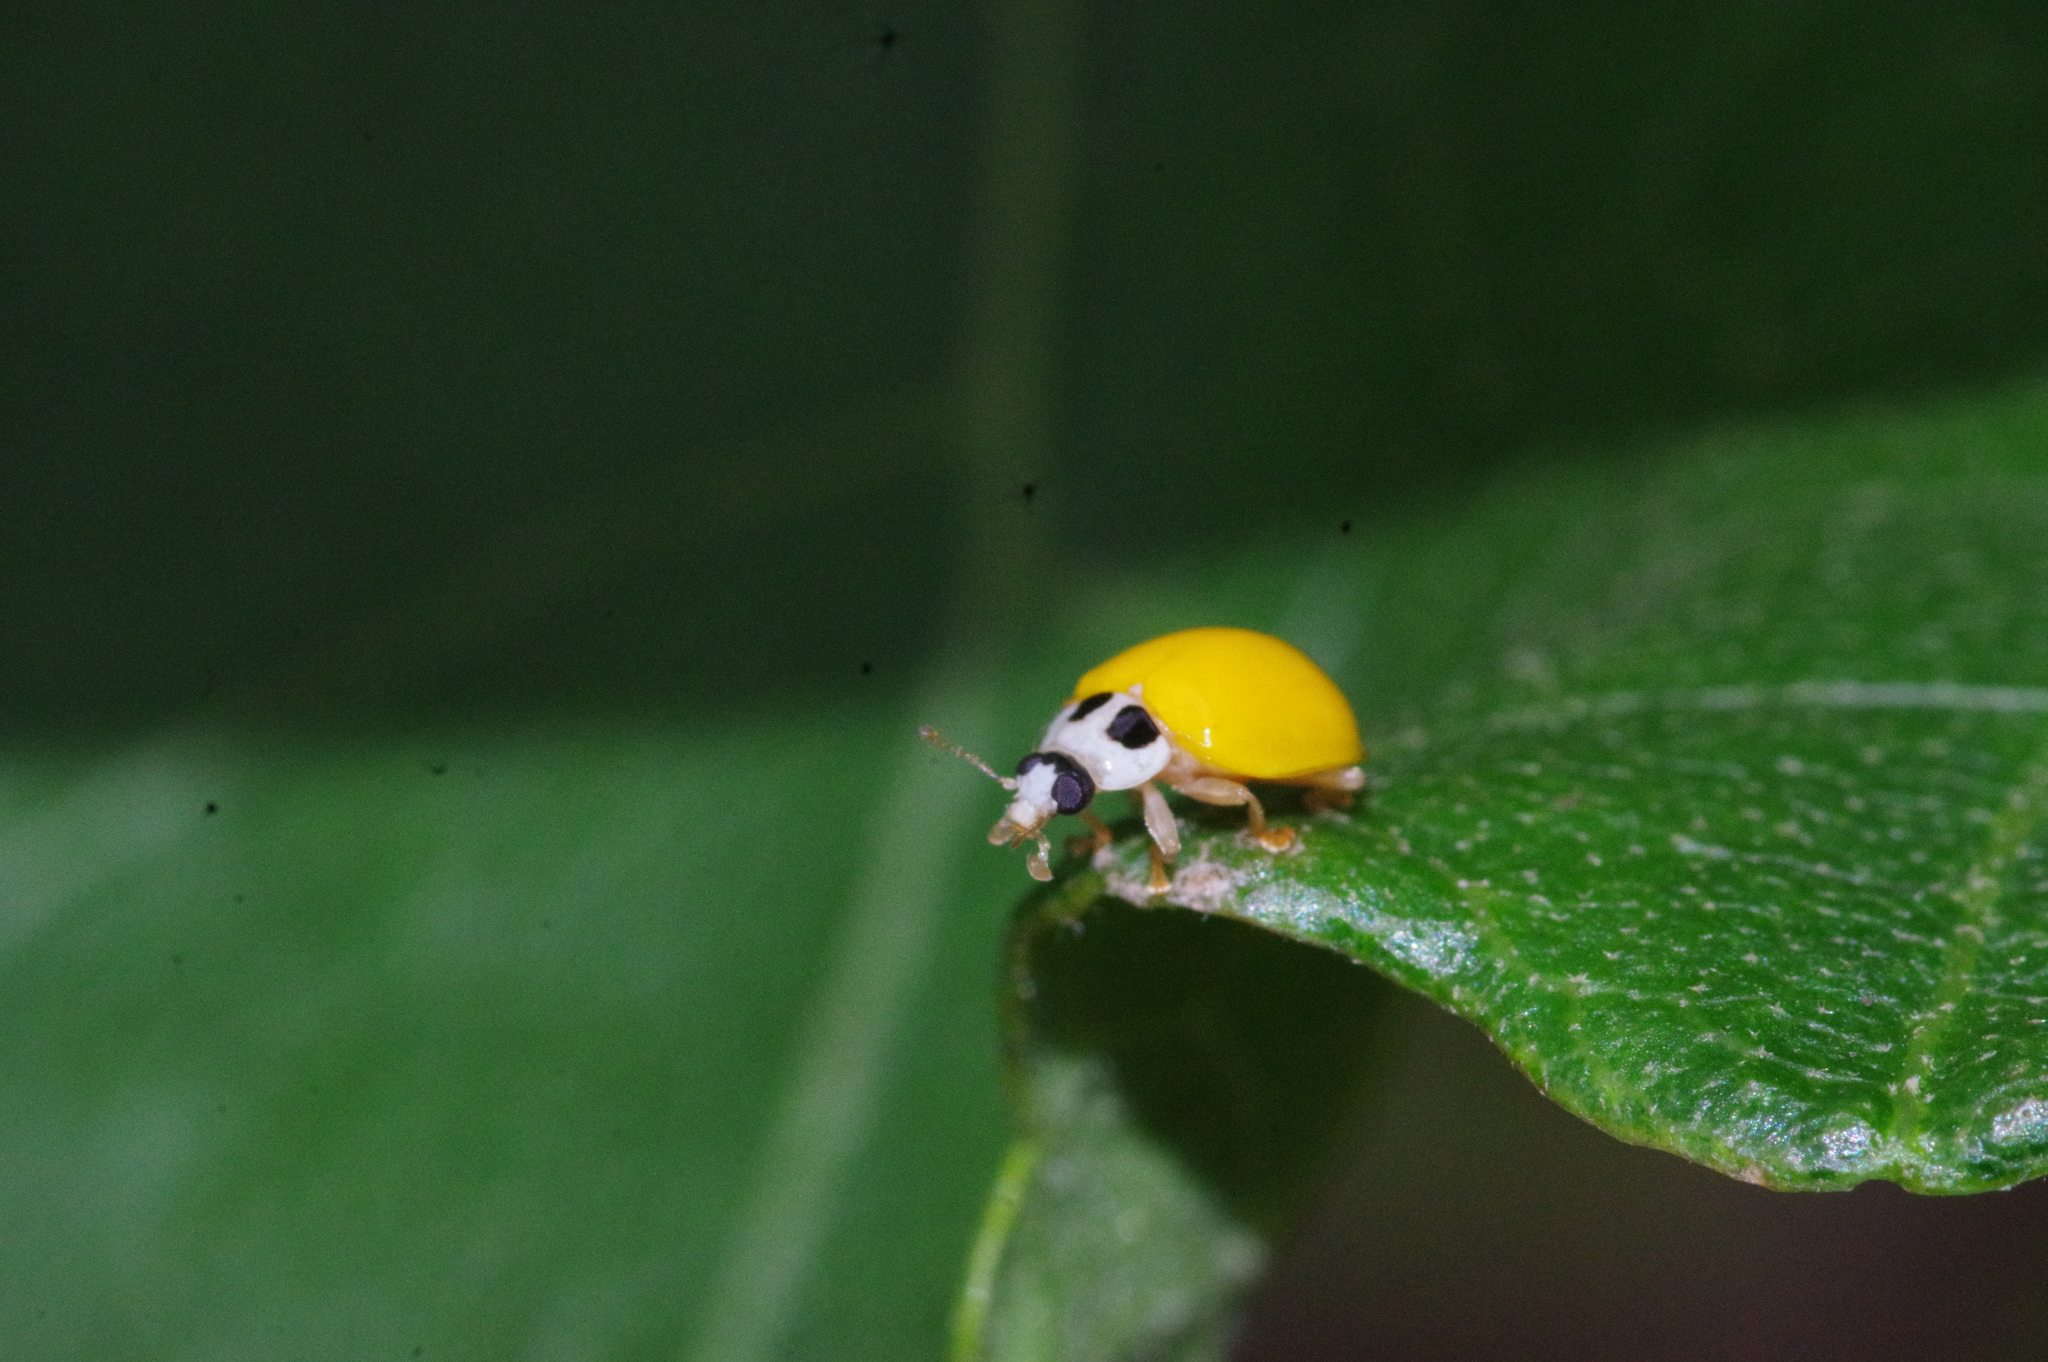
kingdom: Animalia
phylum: Arthropoda
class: Insecta
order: Coleoptera
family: Coccinellidae
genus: Illeis
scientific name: Illeis koebelei
